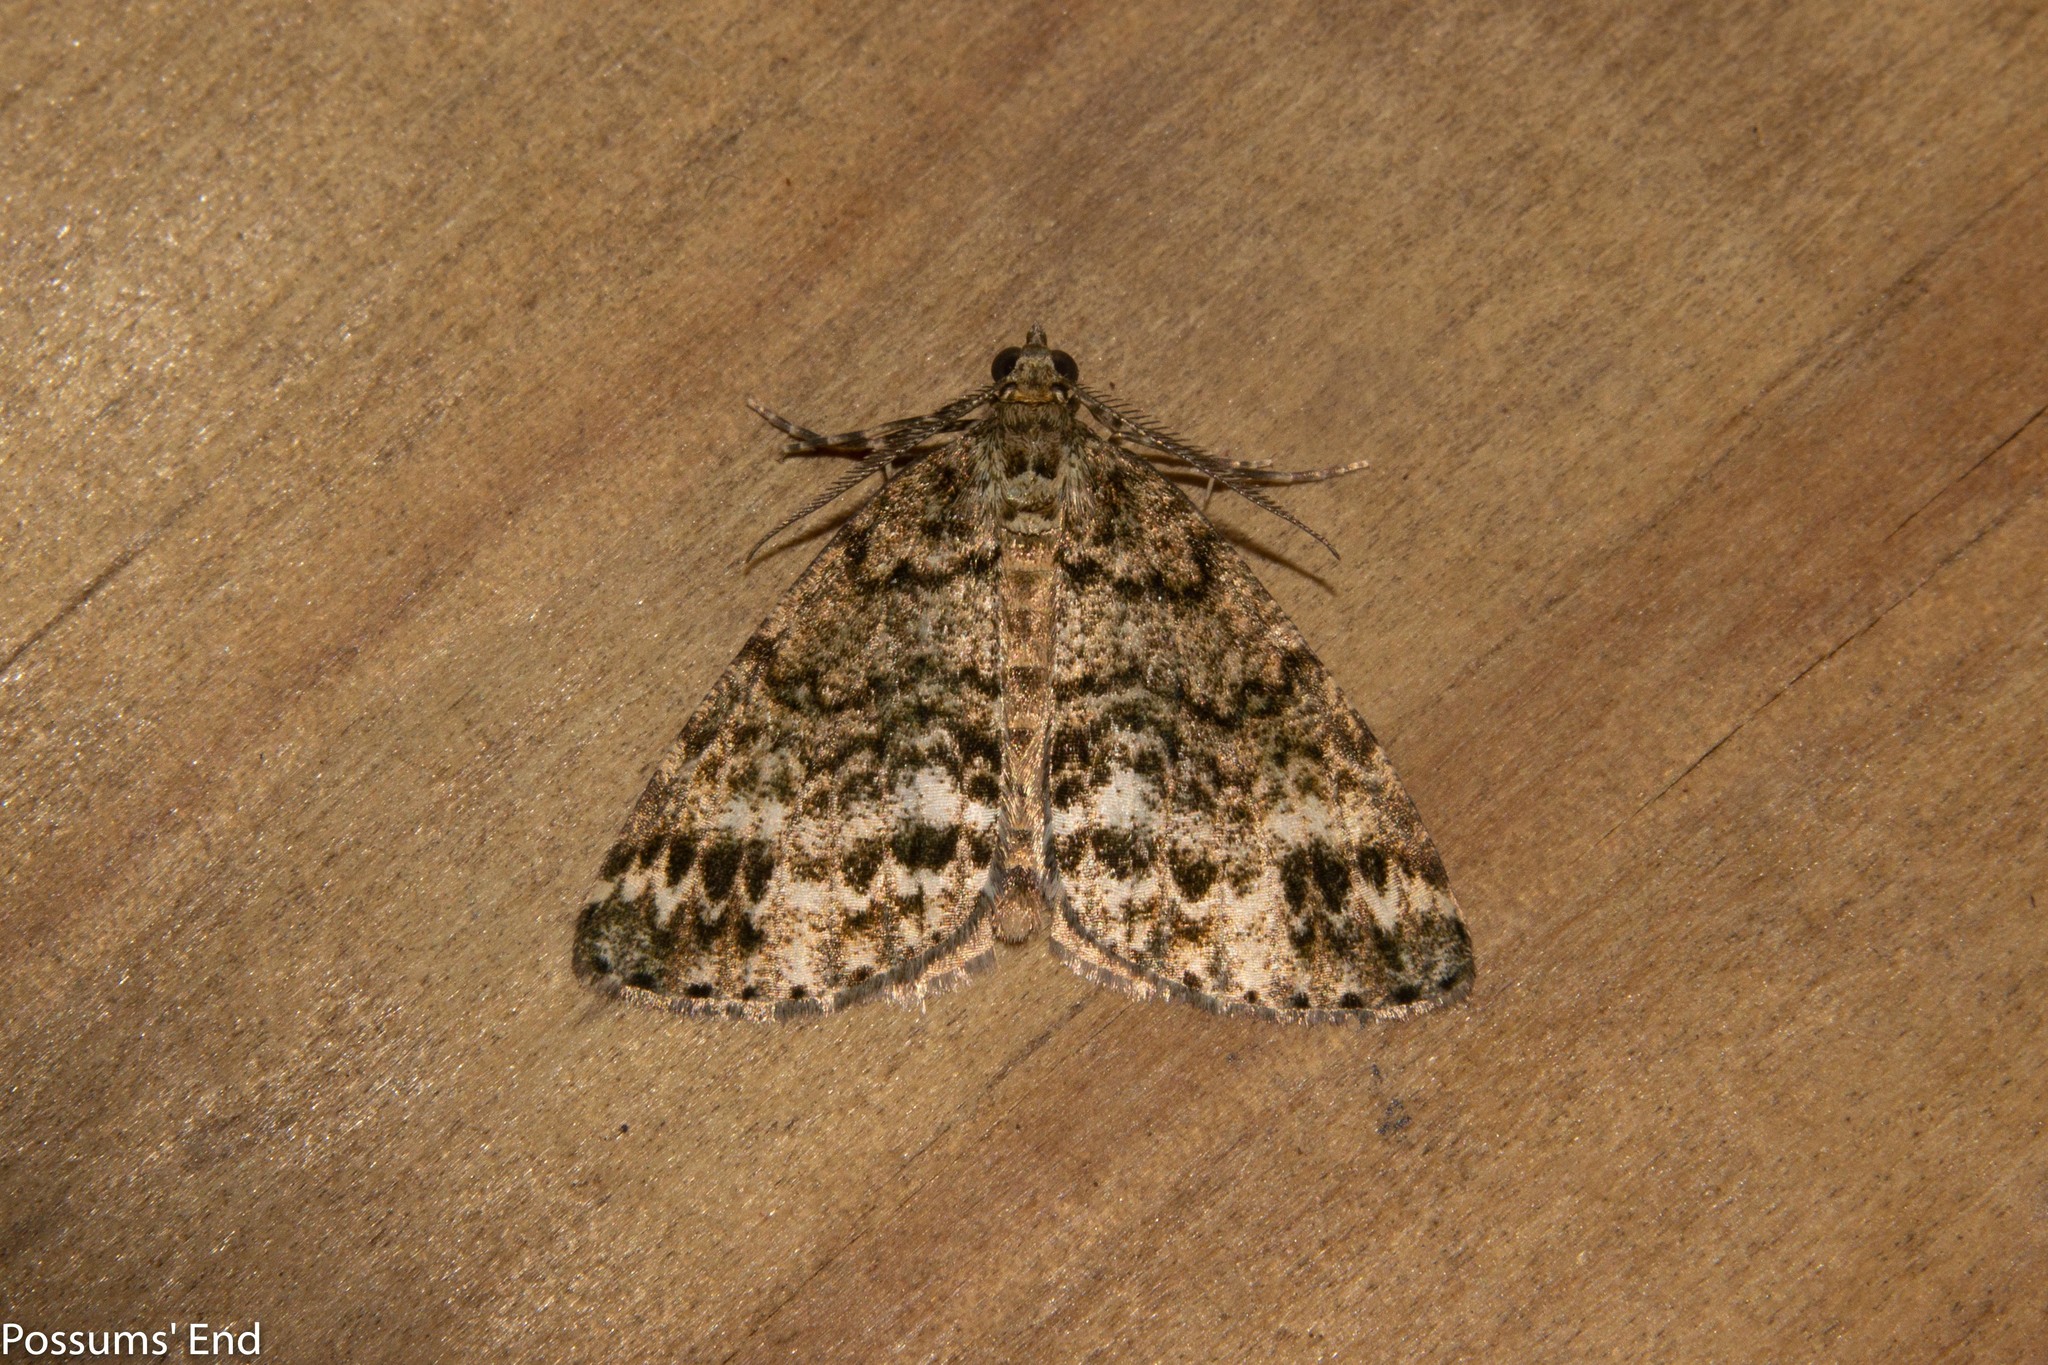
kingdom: Animalia
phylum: Arthropoda
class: Insecta
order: Lepidoptera
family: Geometridae
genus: Pseudocoremia
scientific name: Pseudocoremia indistincta
